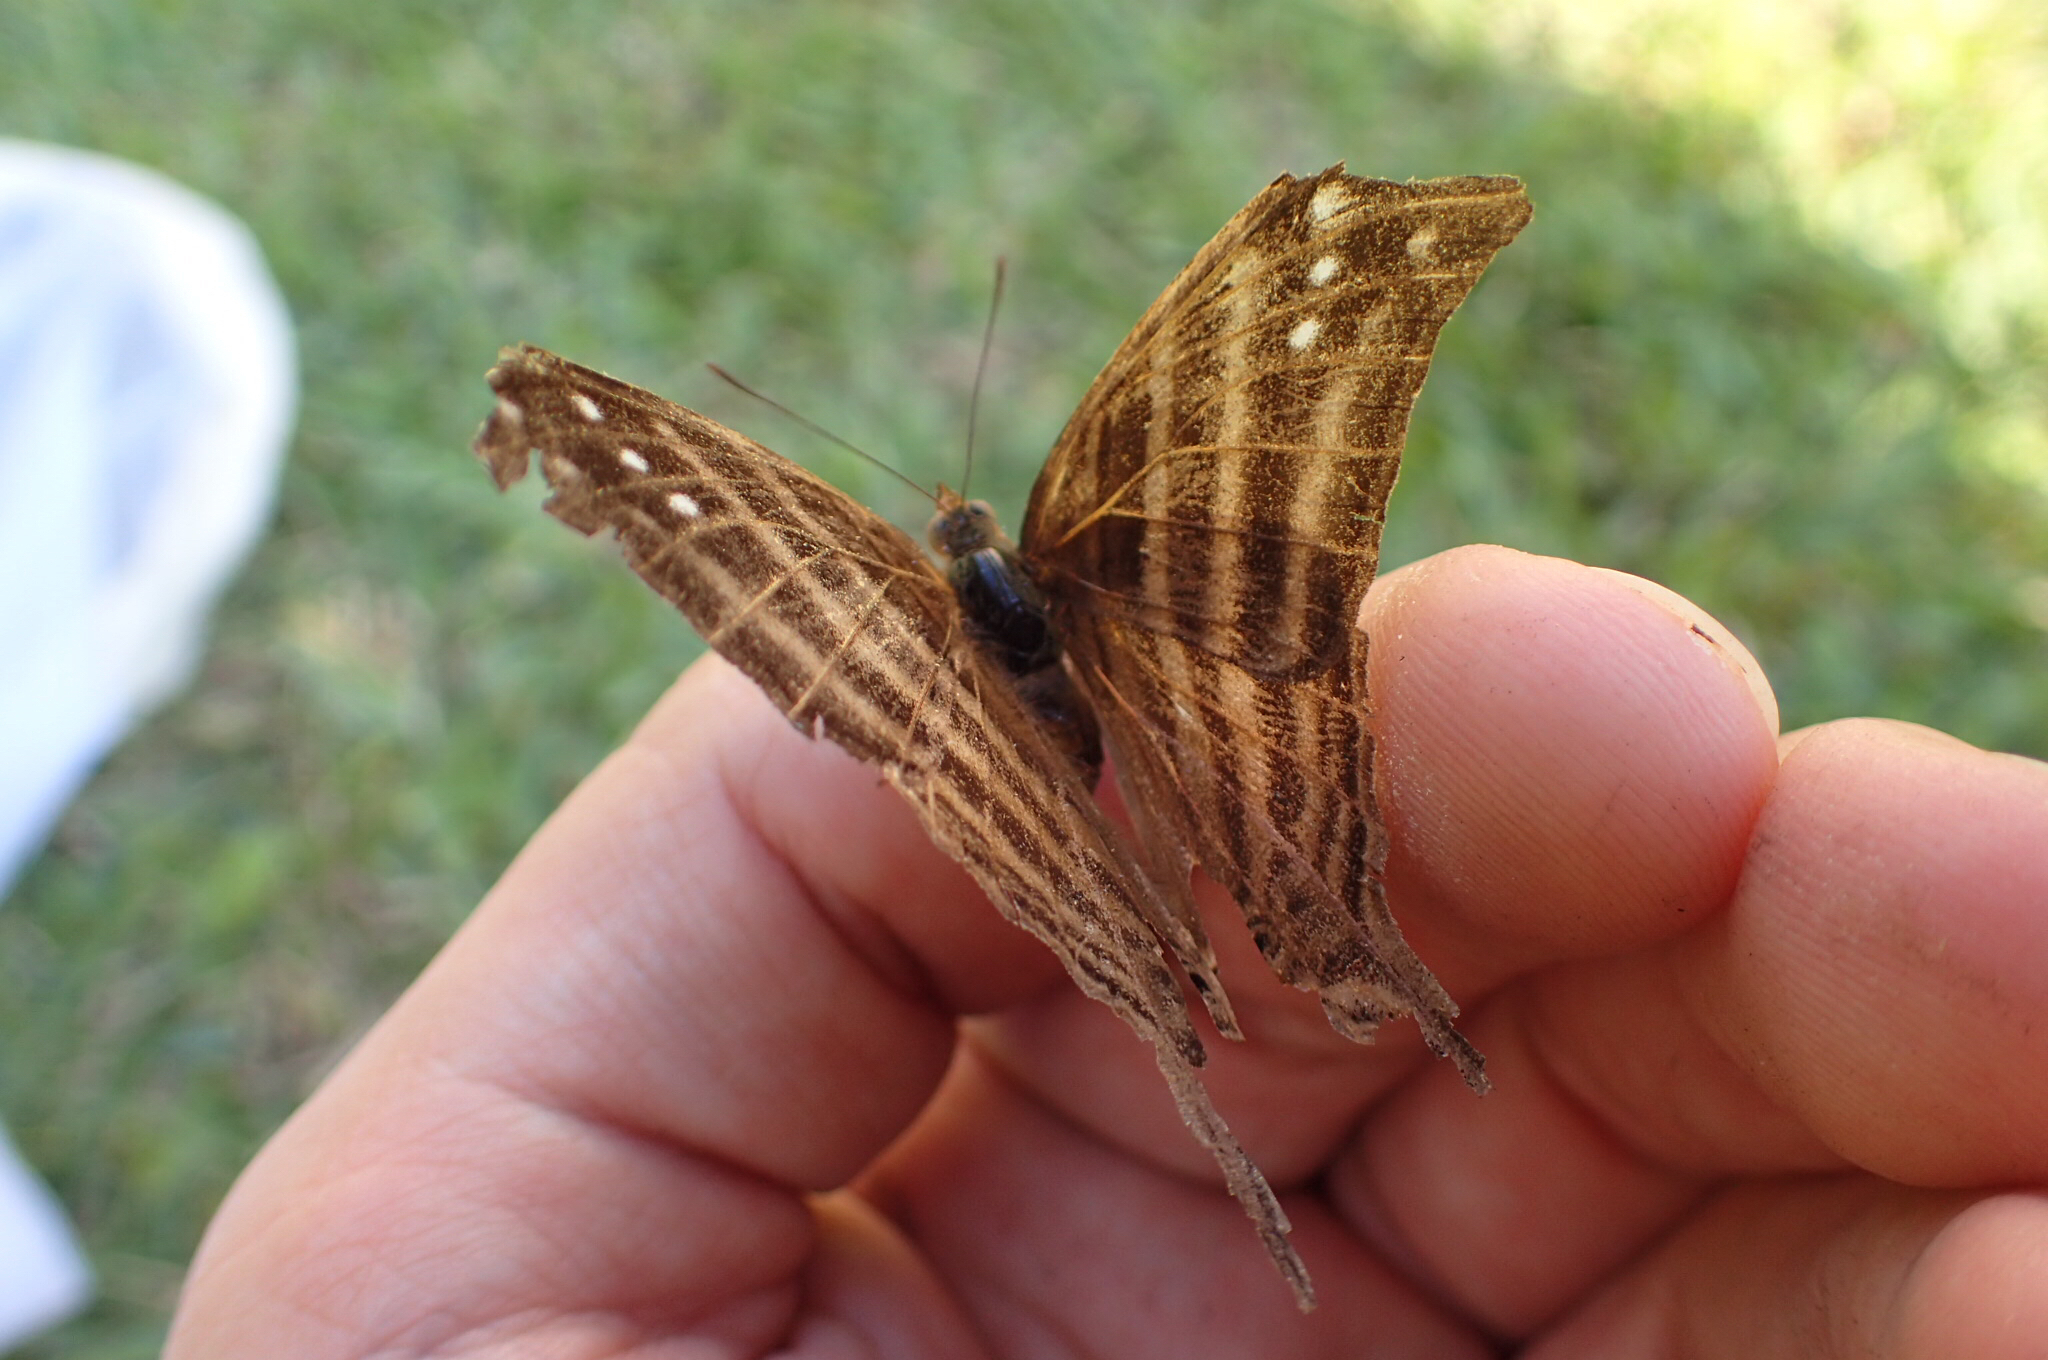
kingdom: Animalia
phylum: Arthropoda
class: Insecta
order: Lepidoptera
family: Nymphalidae
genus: Marpesia
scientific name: Marpesia chiron
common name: Many-banded daggerwing
